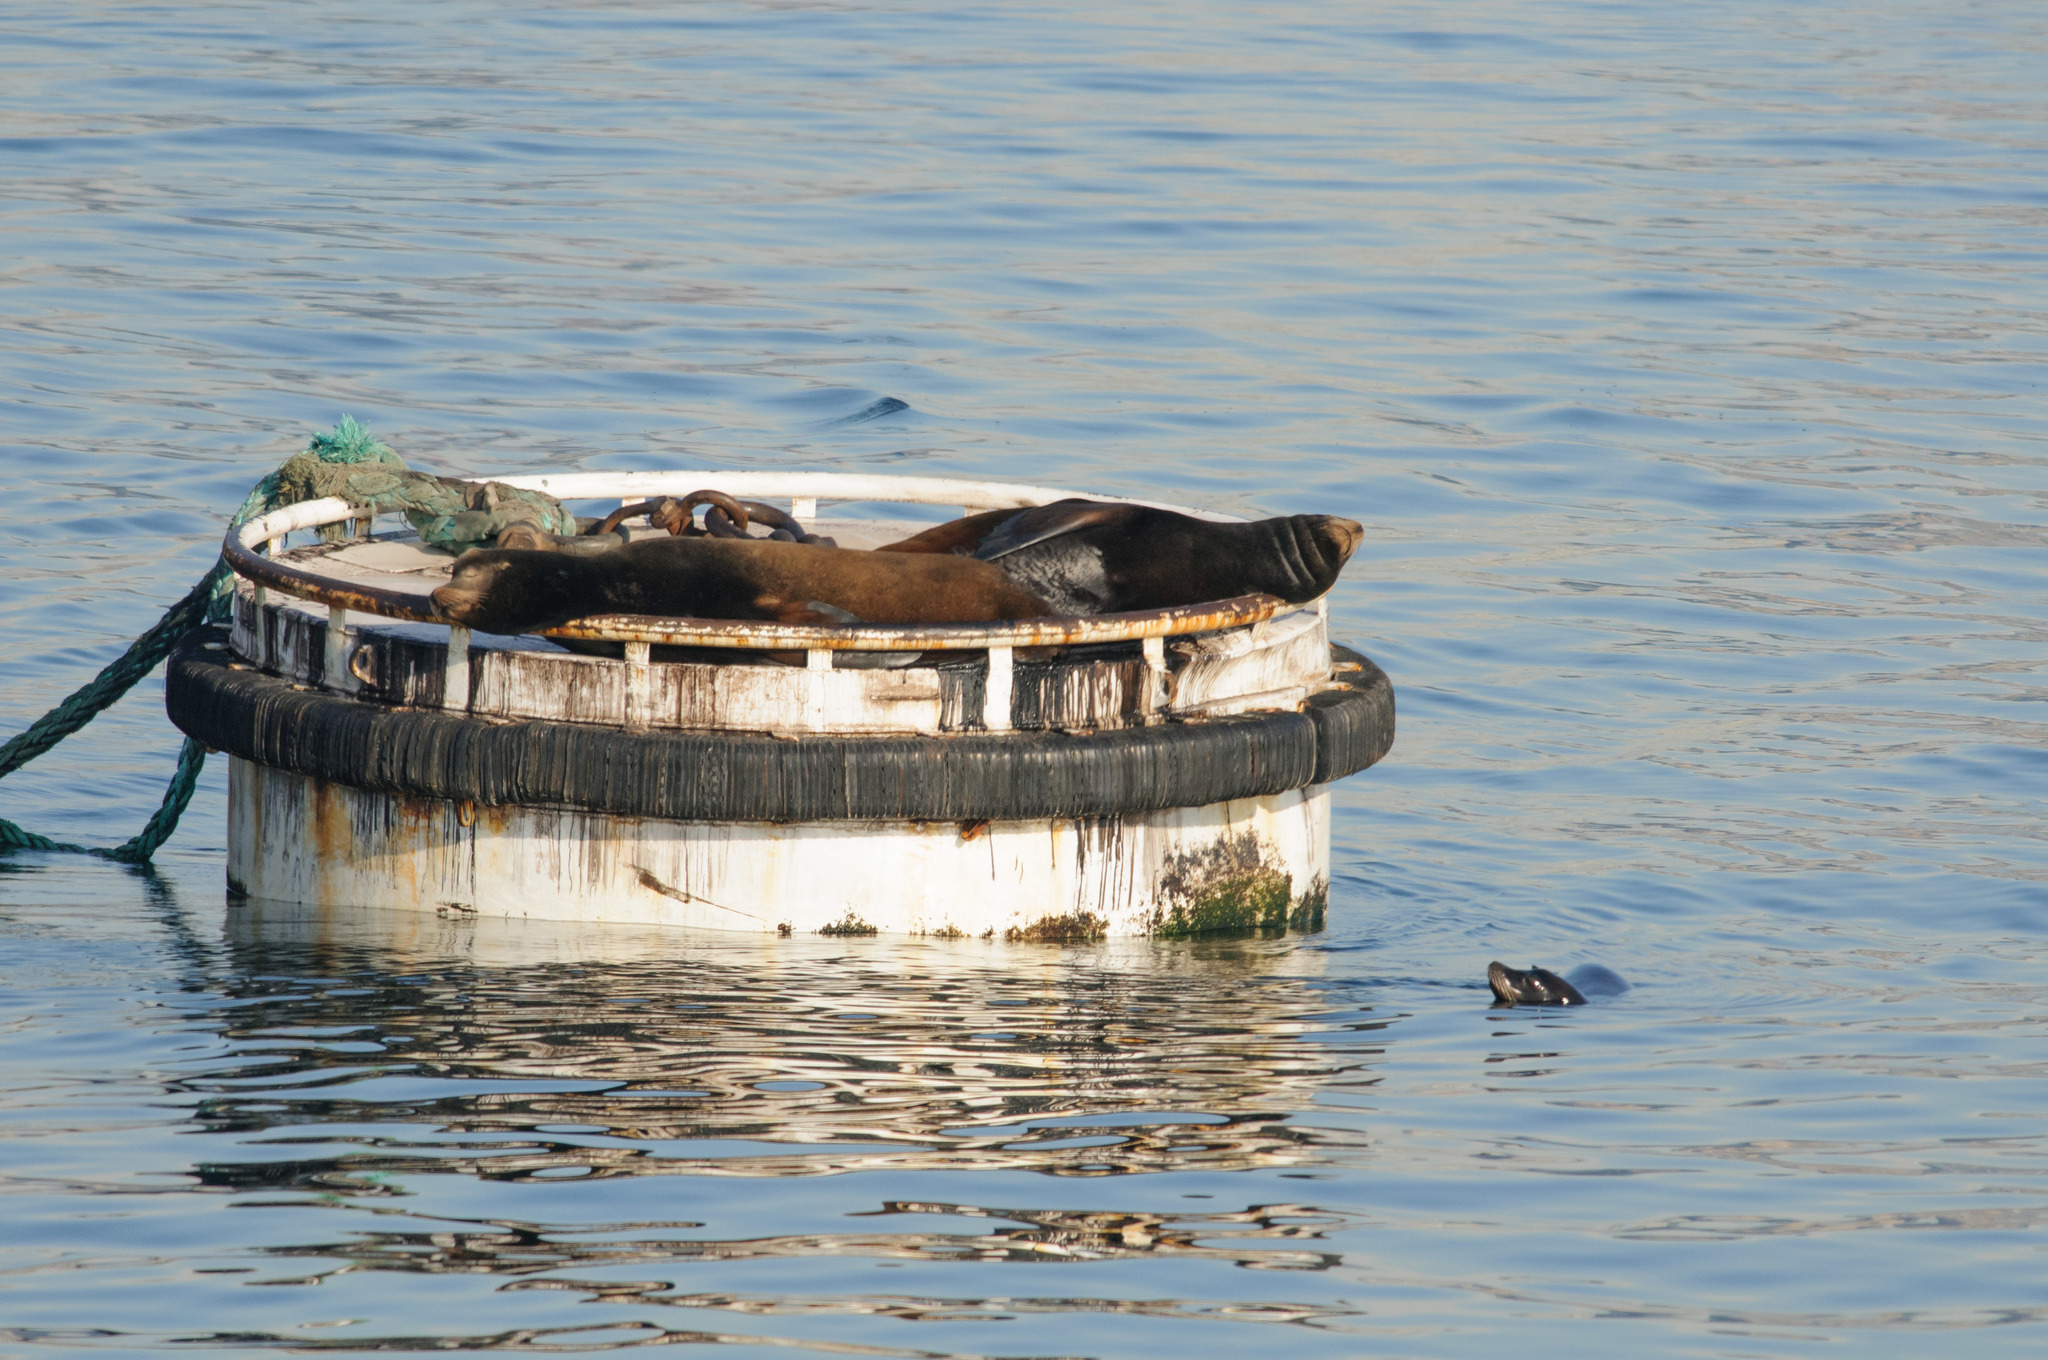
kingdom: Animalia
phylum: Chordata
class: Mammalia
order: Carnivora
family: Otariidae
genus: Zalophus
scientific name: Zalophus californianus
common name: California sea lion
